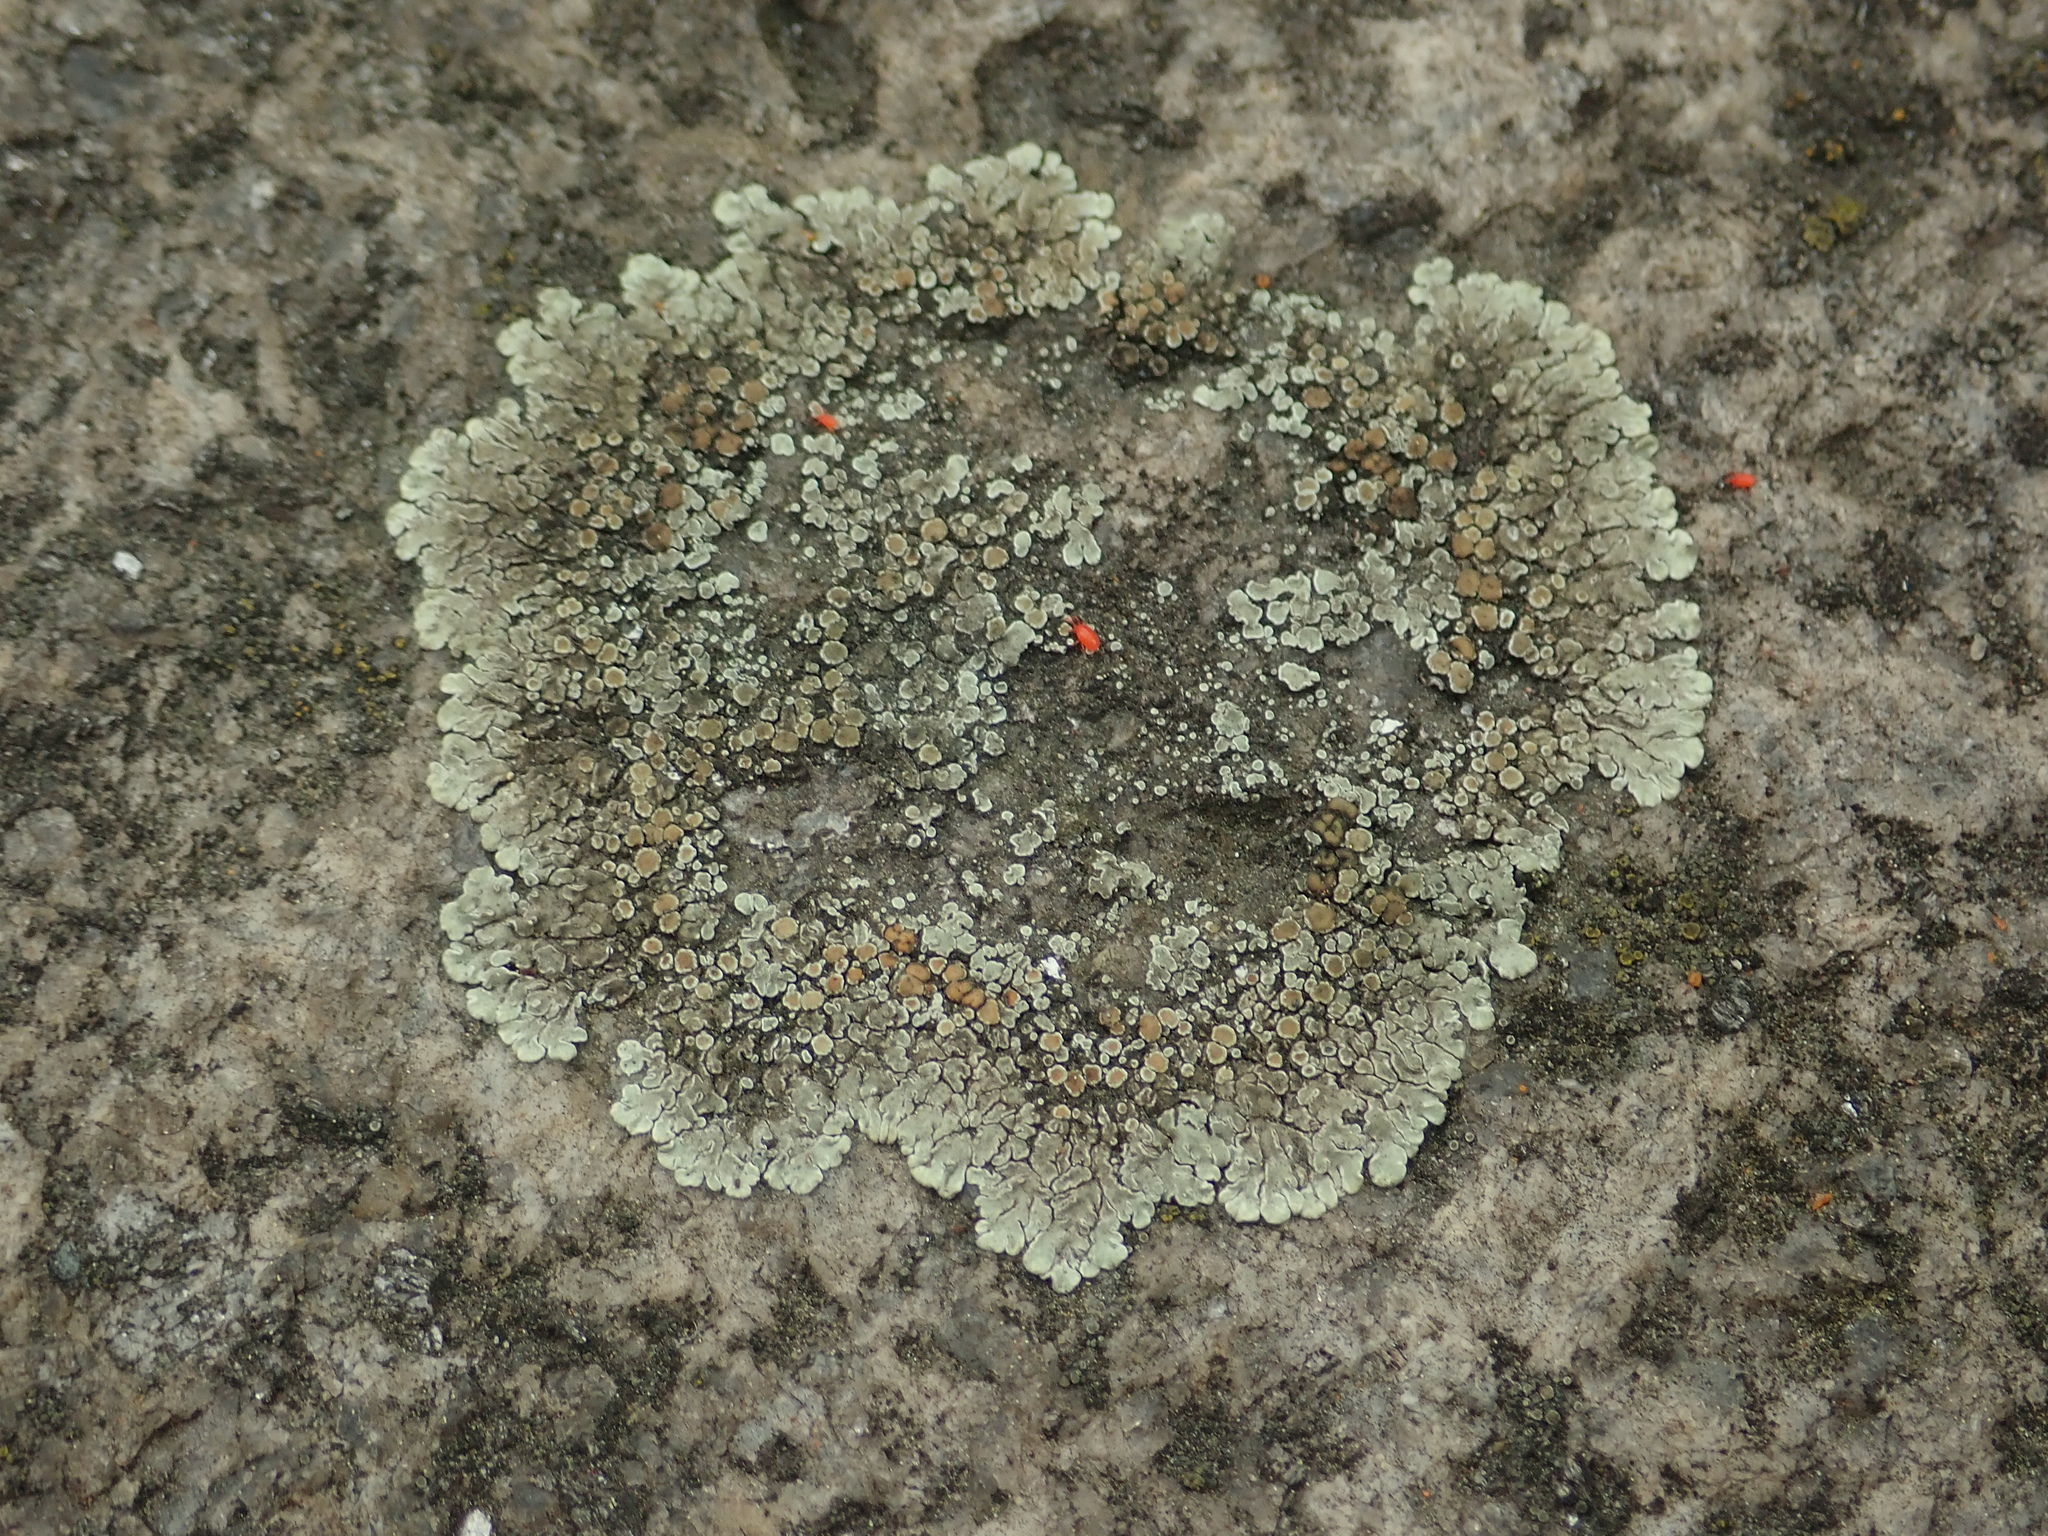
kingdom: Fungi
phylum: Ascomycota
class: Lecanoromycetes
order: Lecanorales
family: Lecanoraceae
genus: Protoparmeliopsis
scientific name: Protoparmeliopsis muralis
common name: Stonewall rim lichen
